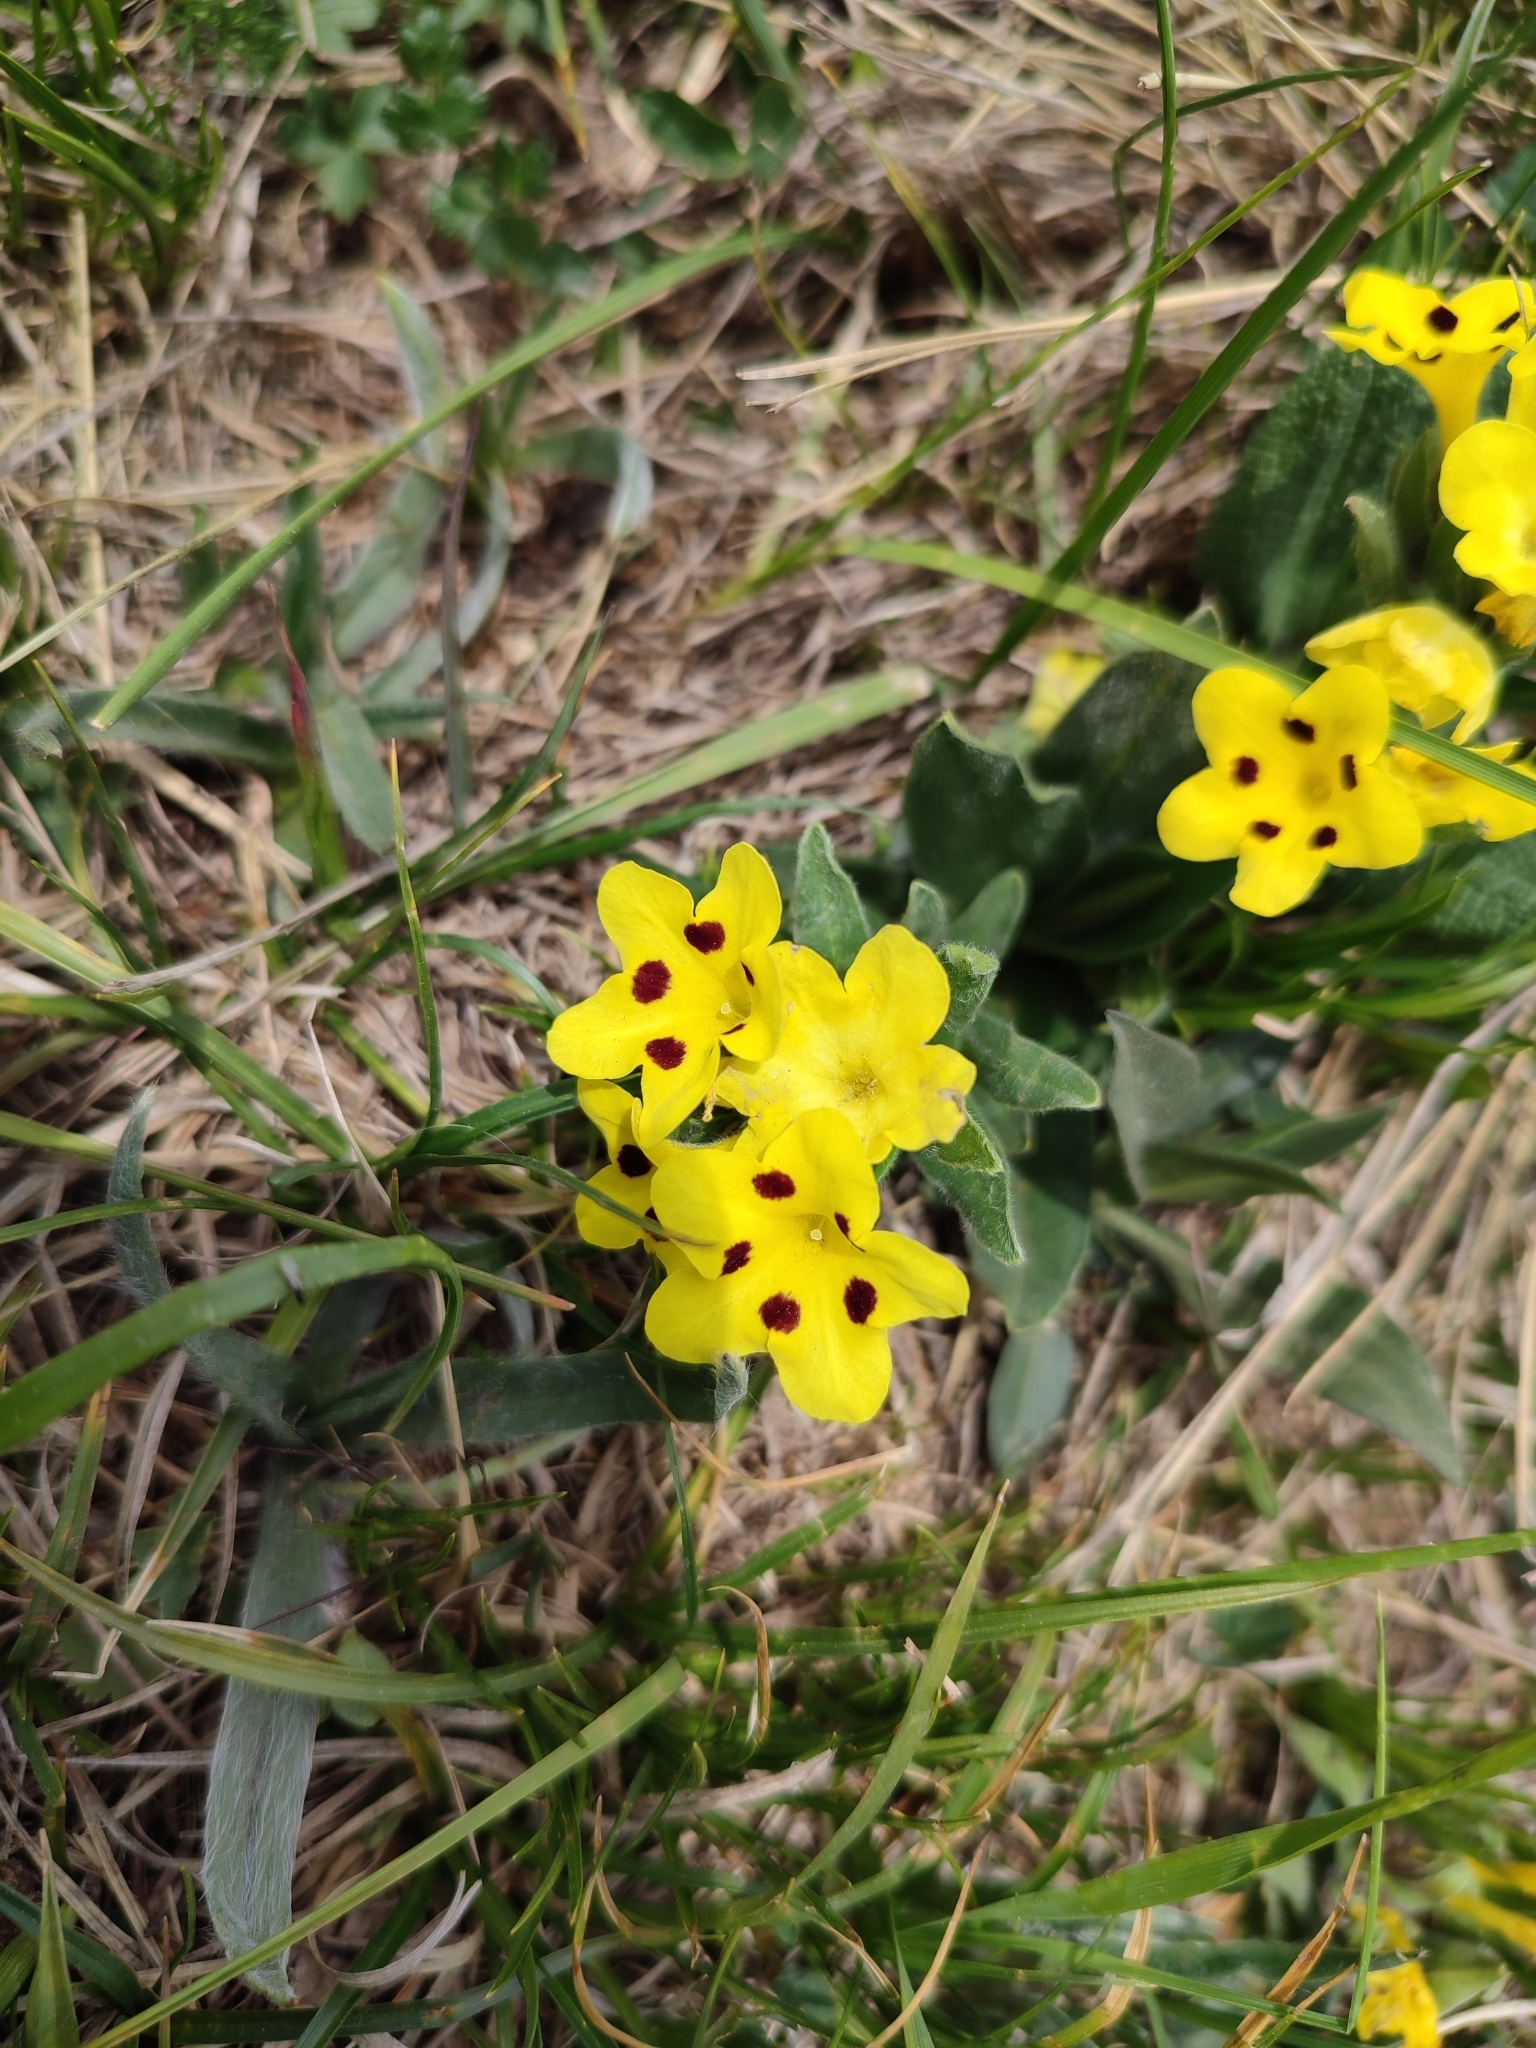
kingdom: Plantae
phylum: Tracheophyta
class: Magnoliopsida
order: Boraginales
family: Boraginaceae
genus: Huynhia
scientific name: Huynhia pulchra
